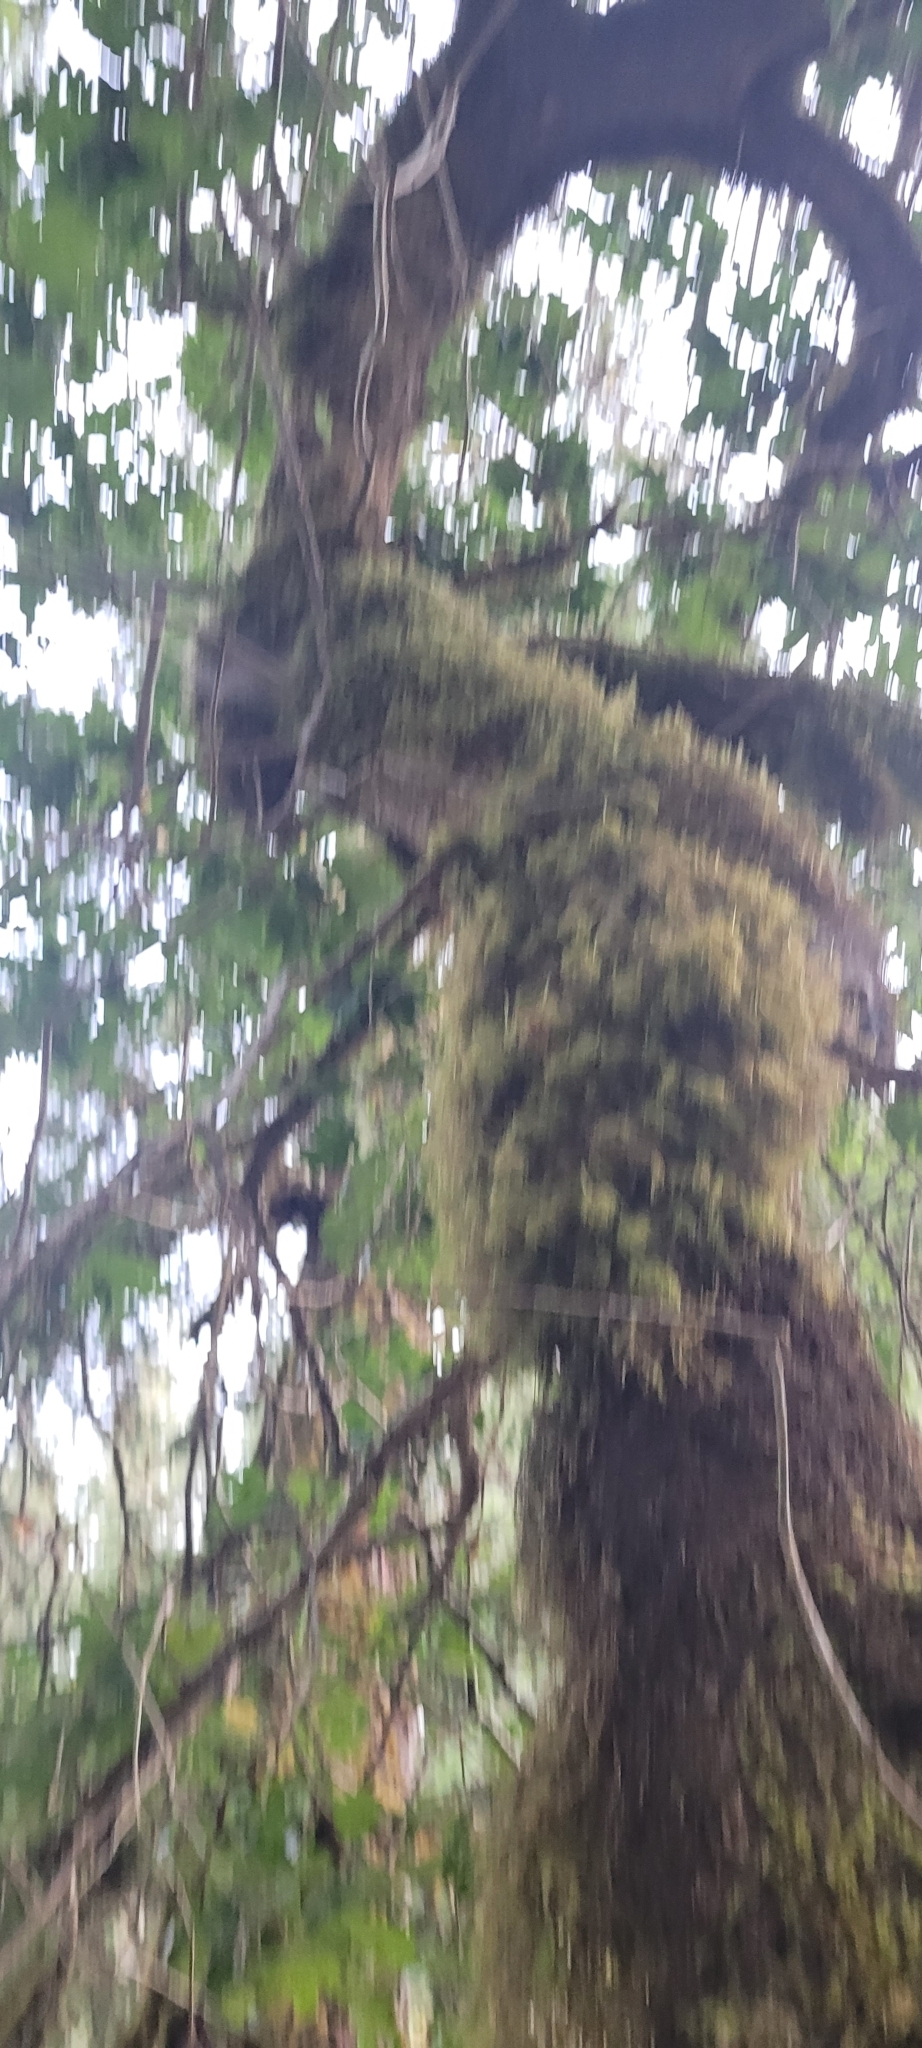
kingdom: Plantae
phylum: Tracheophyta
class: Magnoliopsida
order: Fagales
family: Fagaceae
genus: Quercus
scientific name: Quercus garryana
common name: Garry oak
